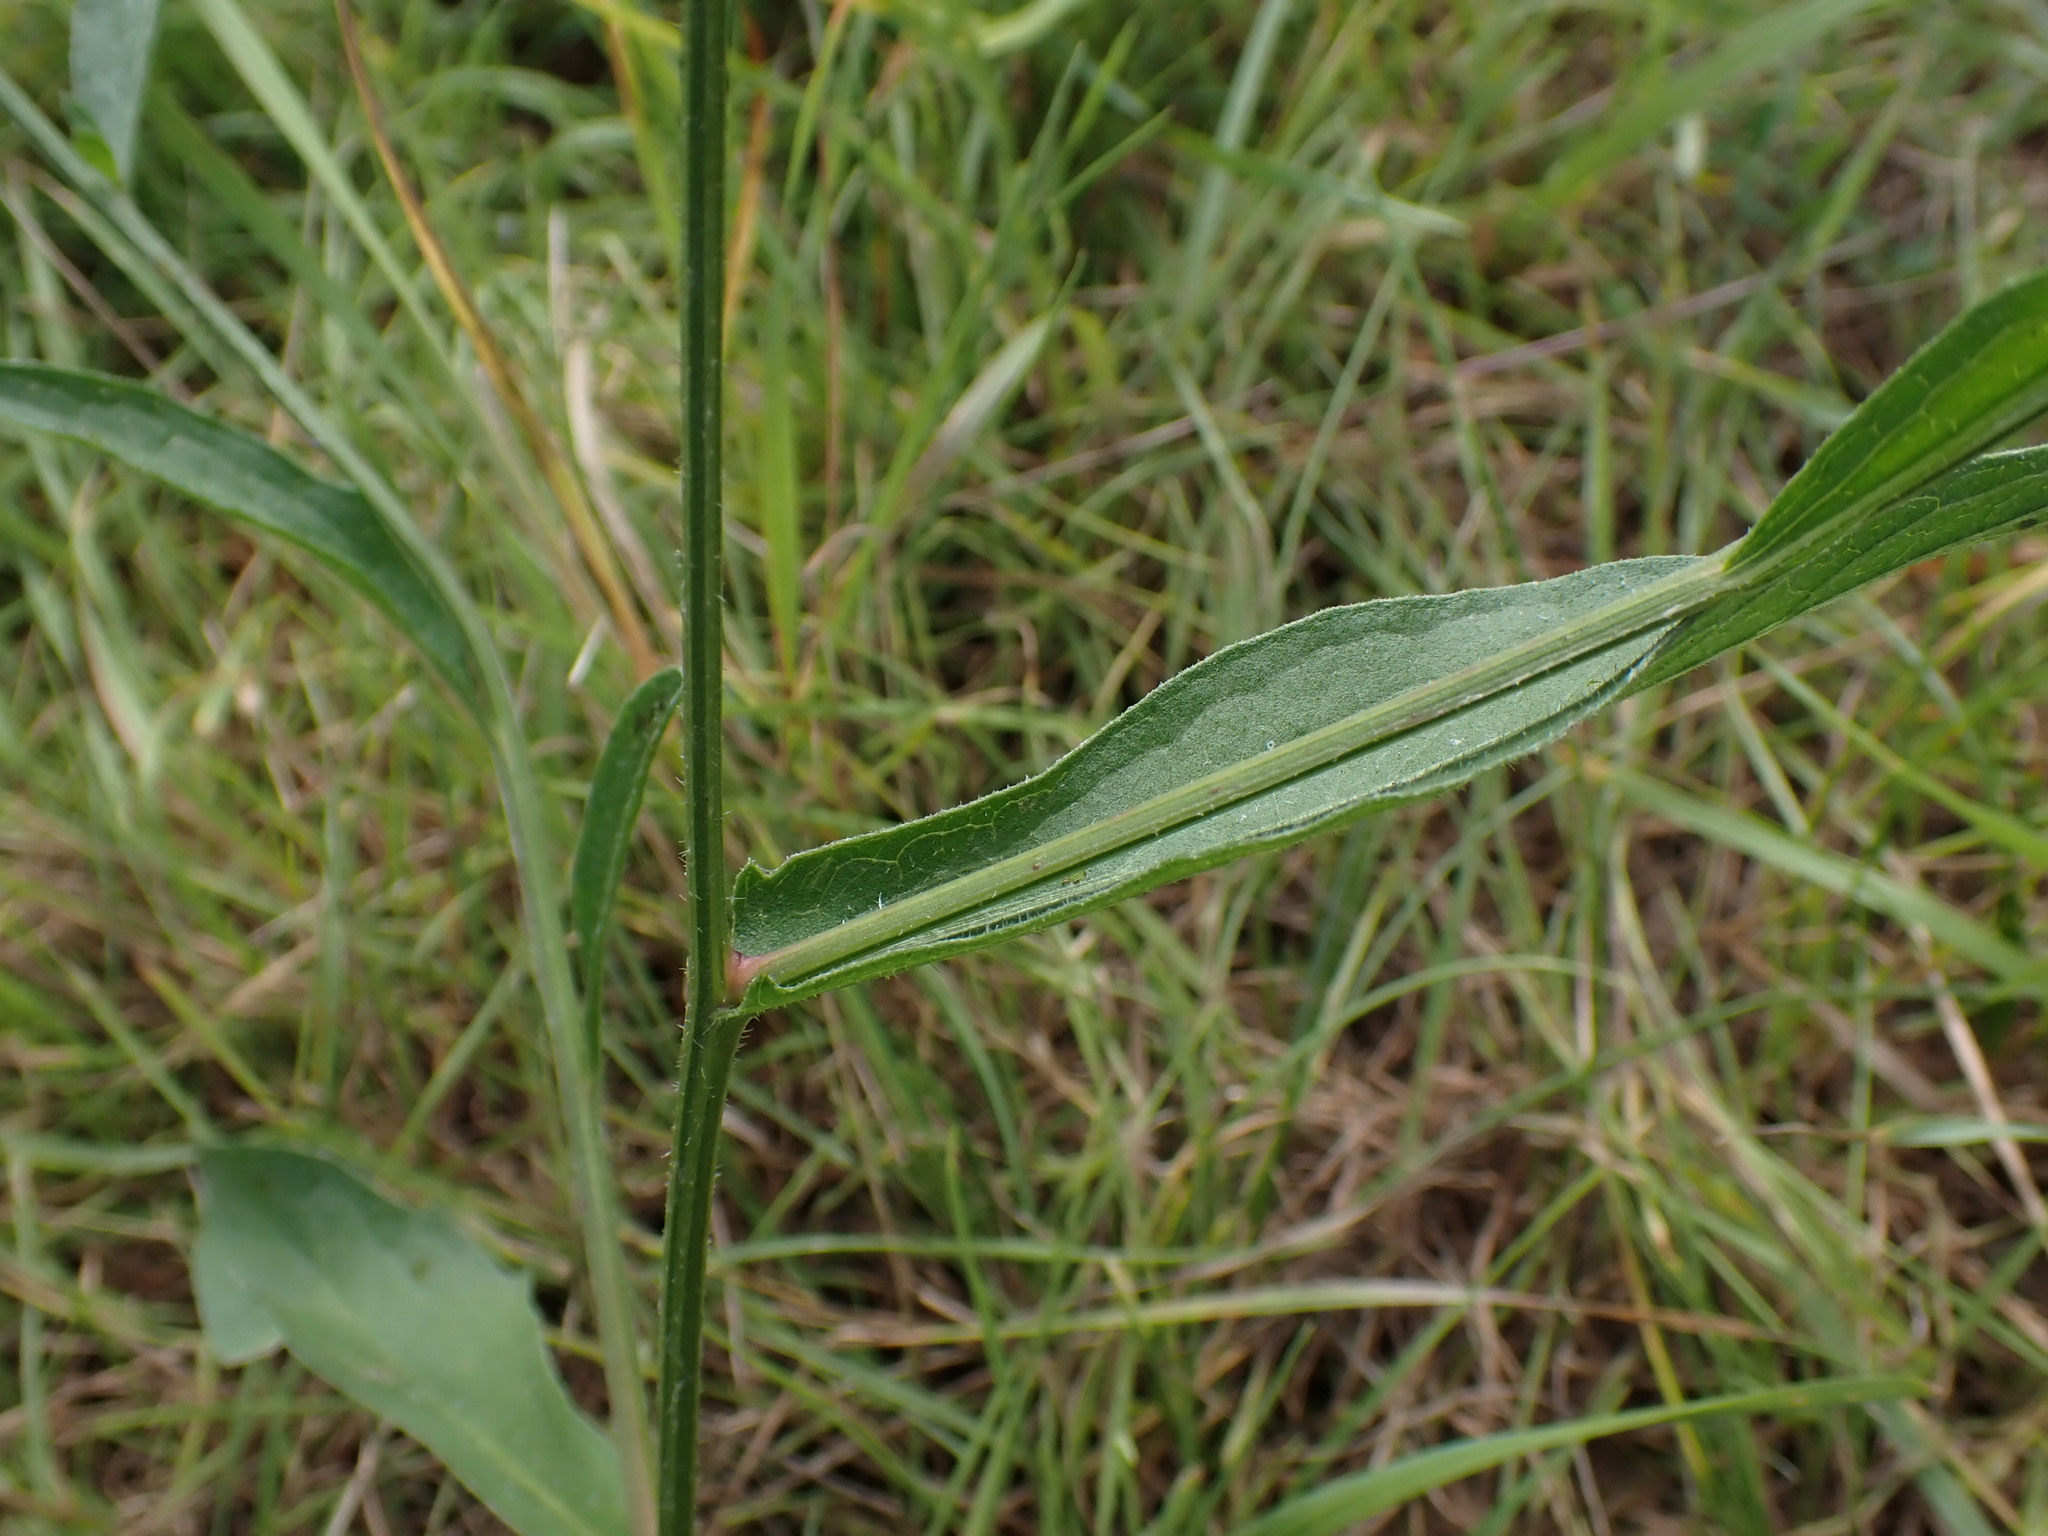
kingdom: Plantae
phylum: Tracheophyta
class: Magnoliopsida
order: Asterales
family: Asteraceae
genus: Centaurea
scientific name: Centaurea jacea
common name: Brown knapweed
